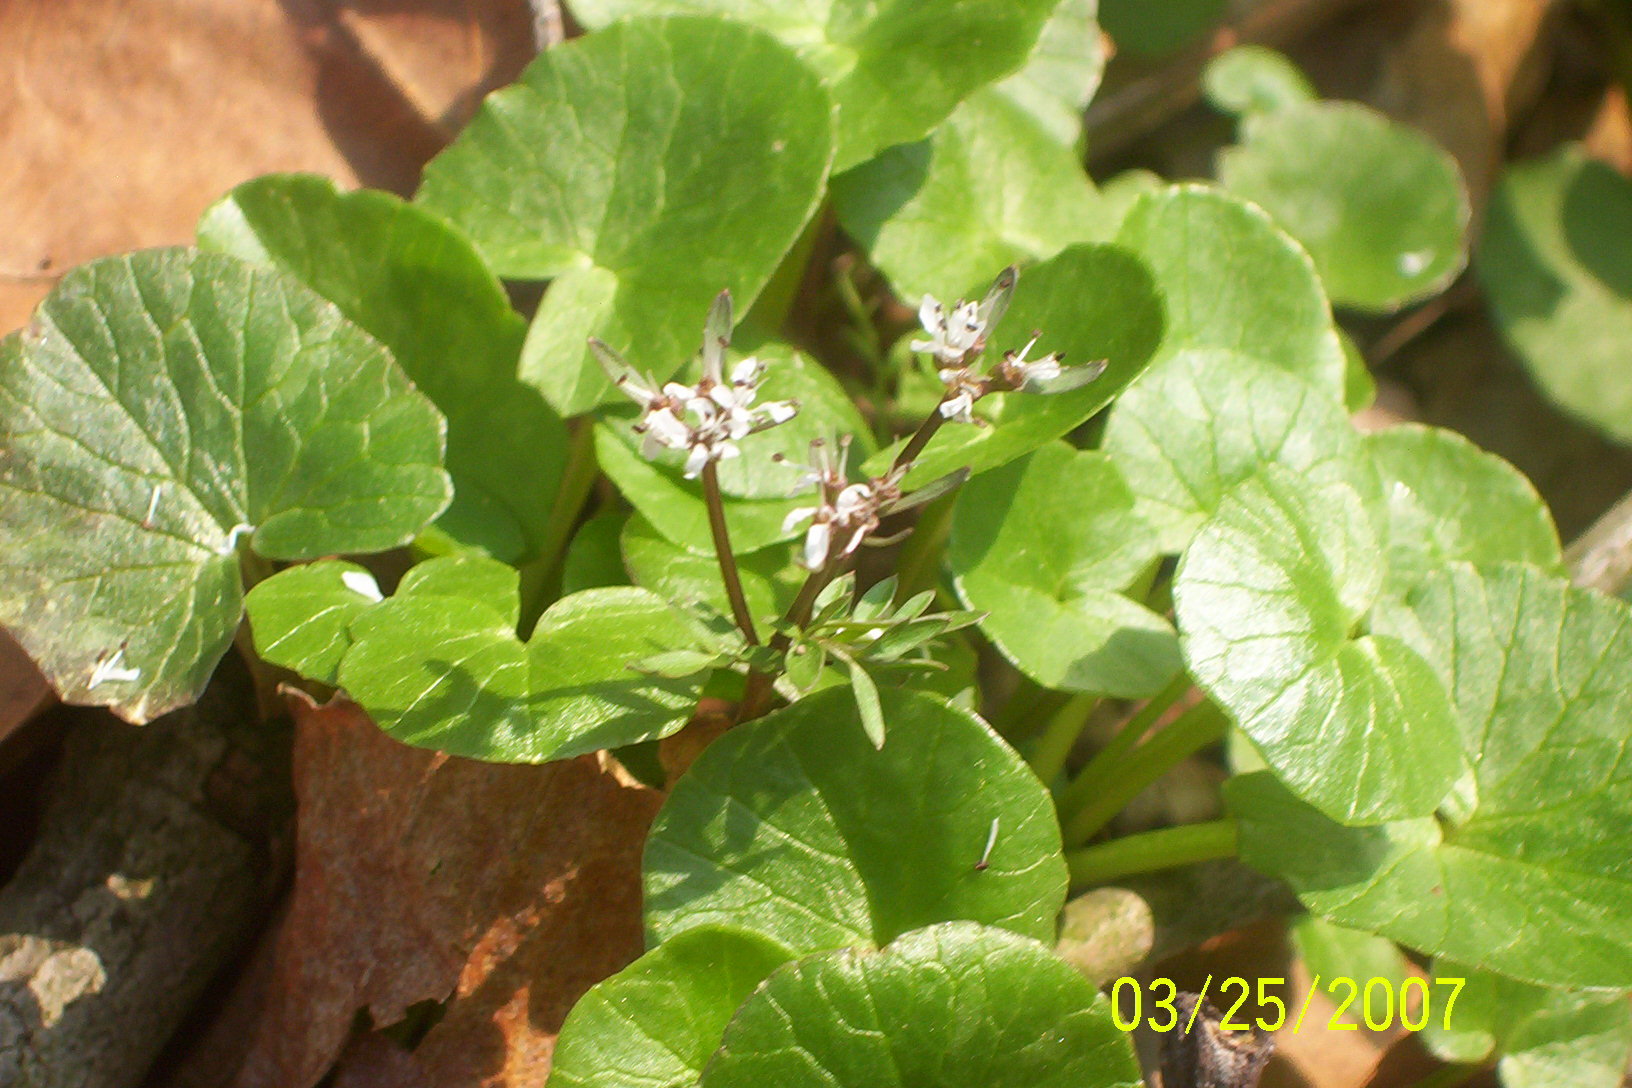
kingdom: Plantae
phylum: Tracheophyta
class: Magnoliopsida
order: Apiales
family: Apiaceae
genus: Erigenia
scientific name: Erigenia bulbosa
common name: Pepper-and-salt
